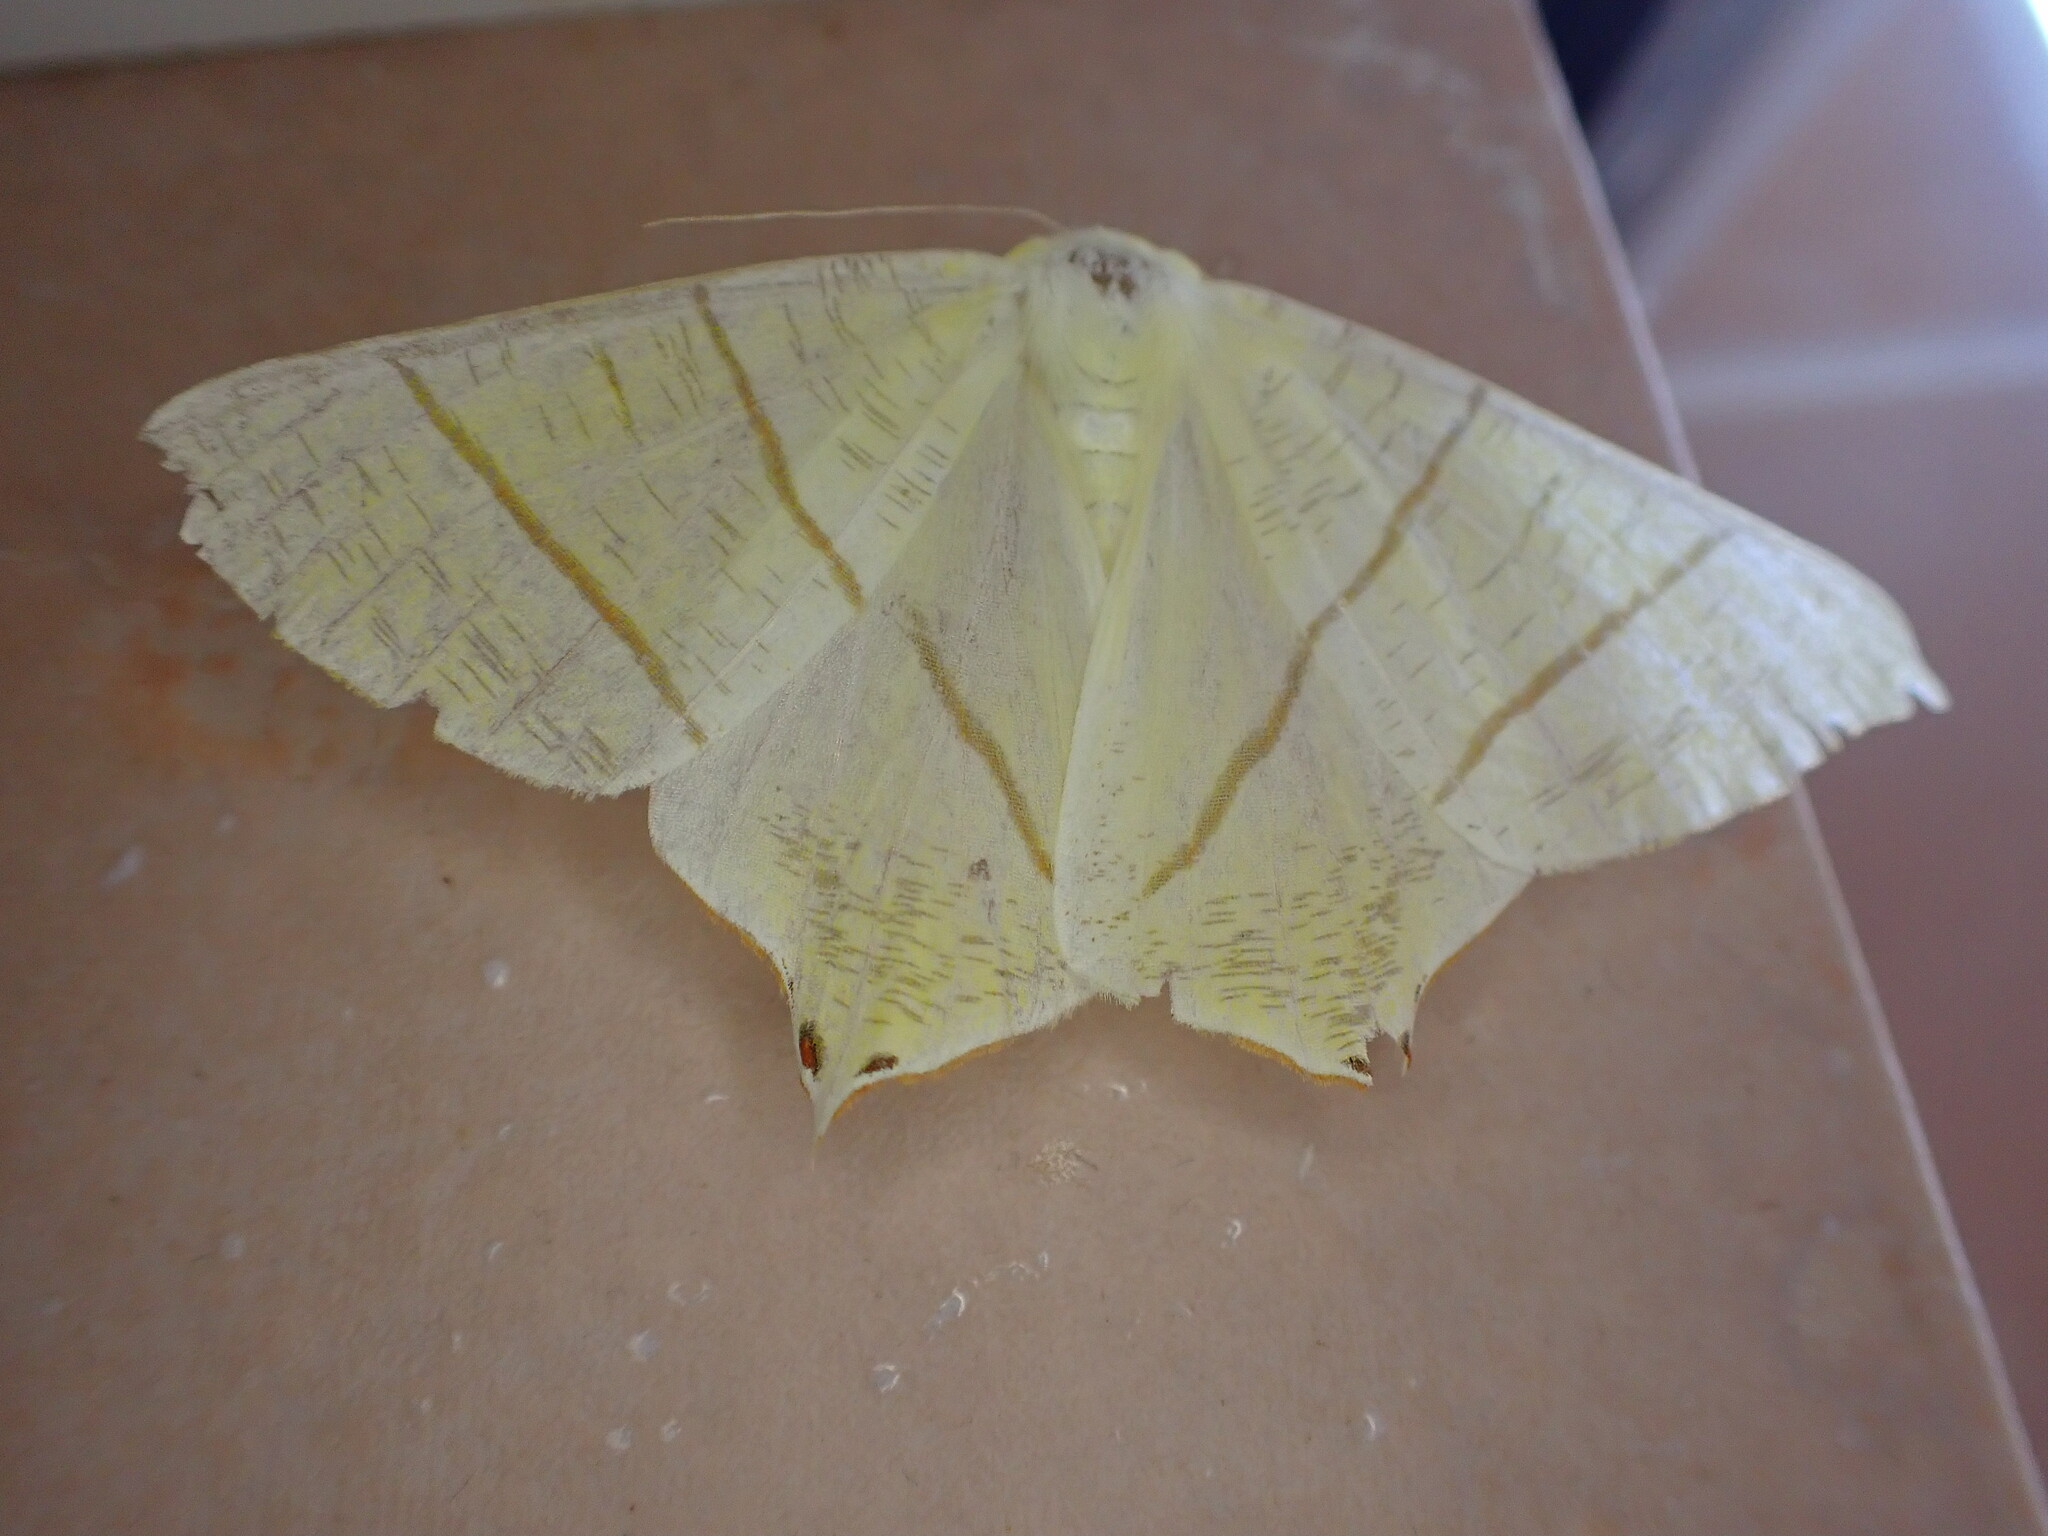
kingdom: Animalia
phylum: Arthropoda
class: Insecta
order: Lepidoptera
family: Geometridae
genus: Ourapteryx
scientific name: Ourapteryx sambucaria
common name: Swallow-tailed moth
